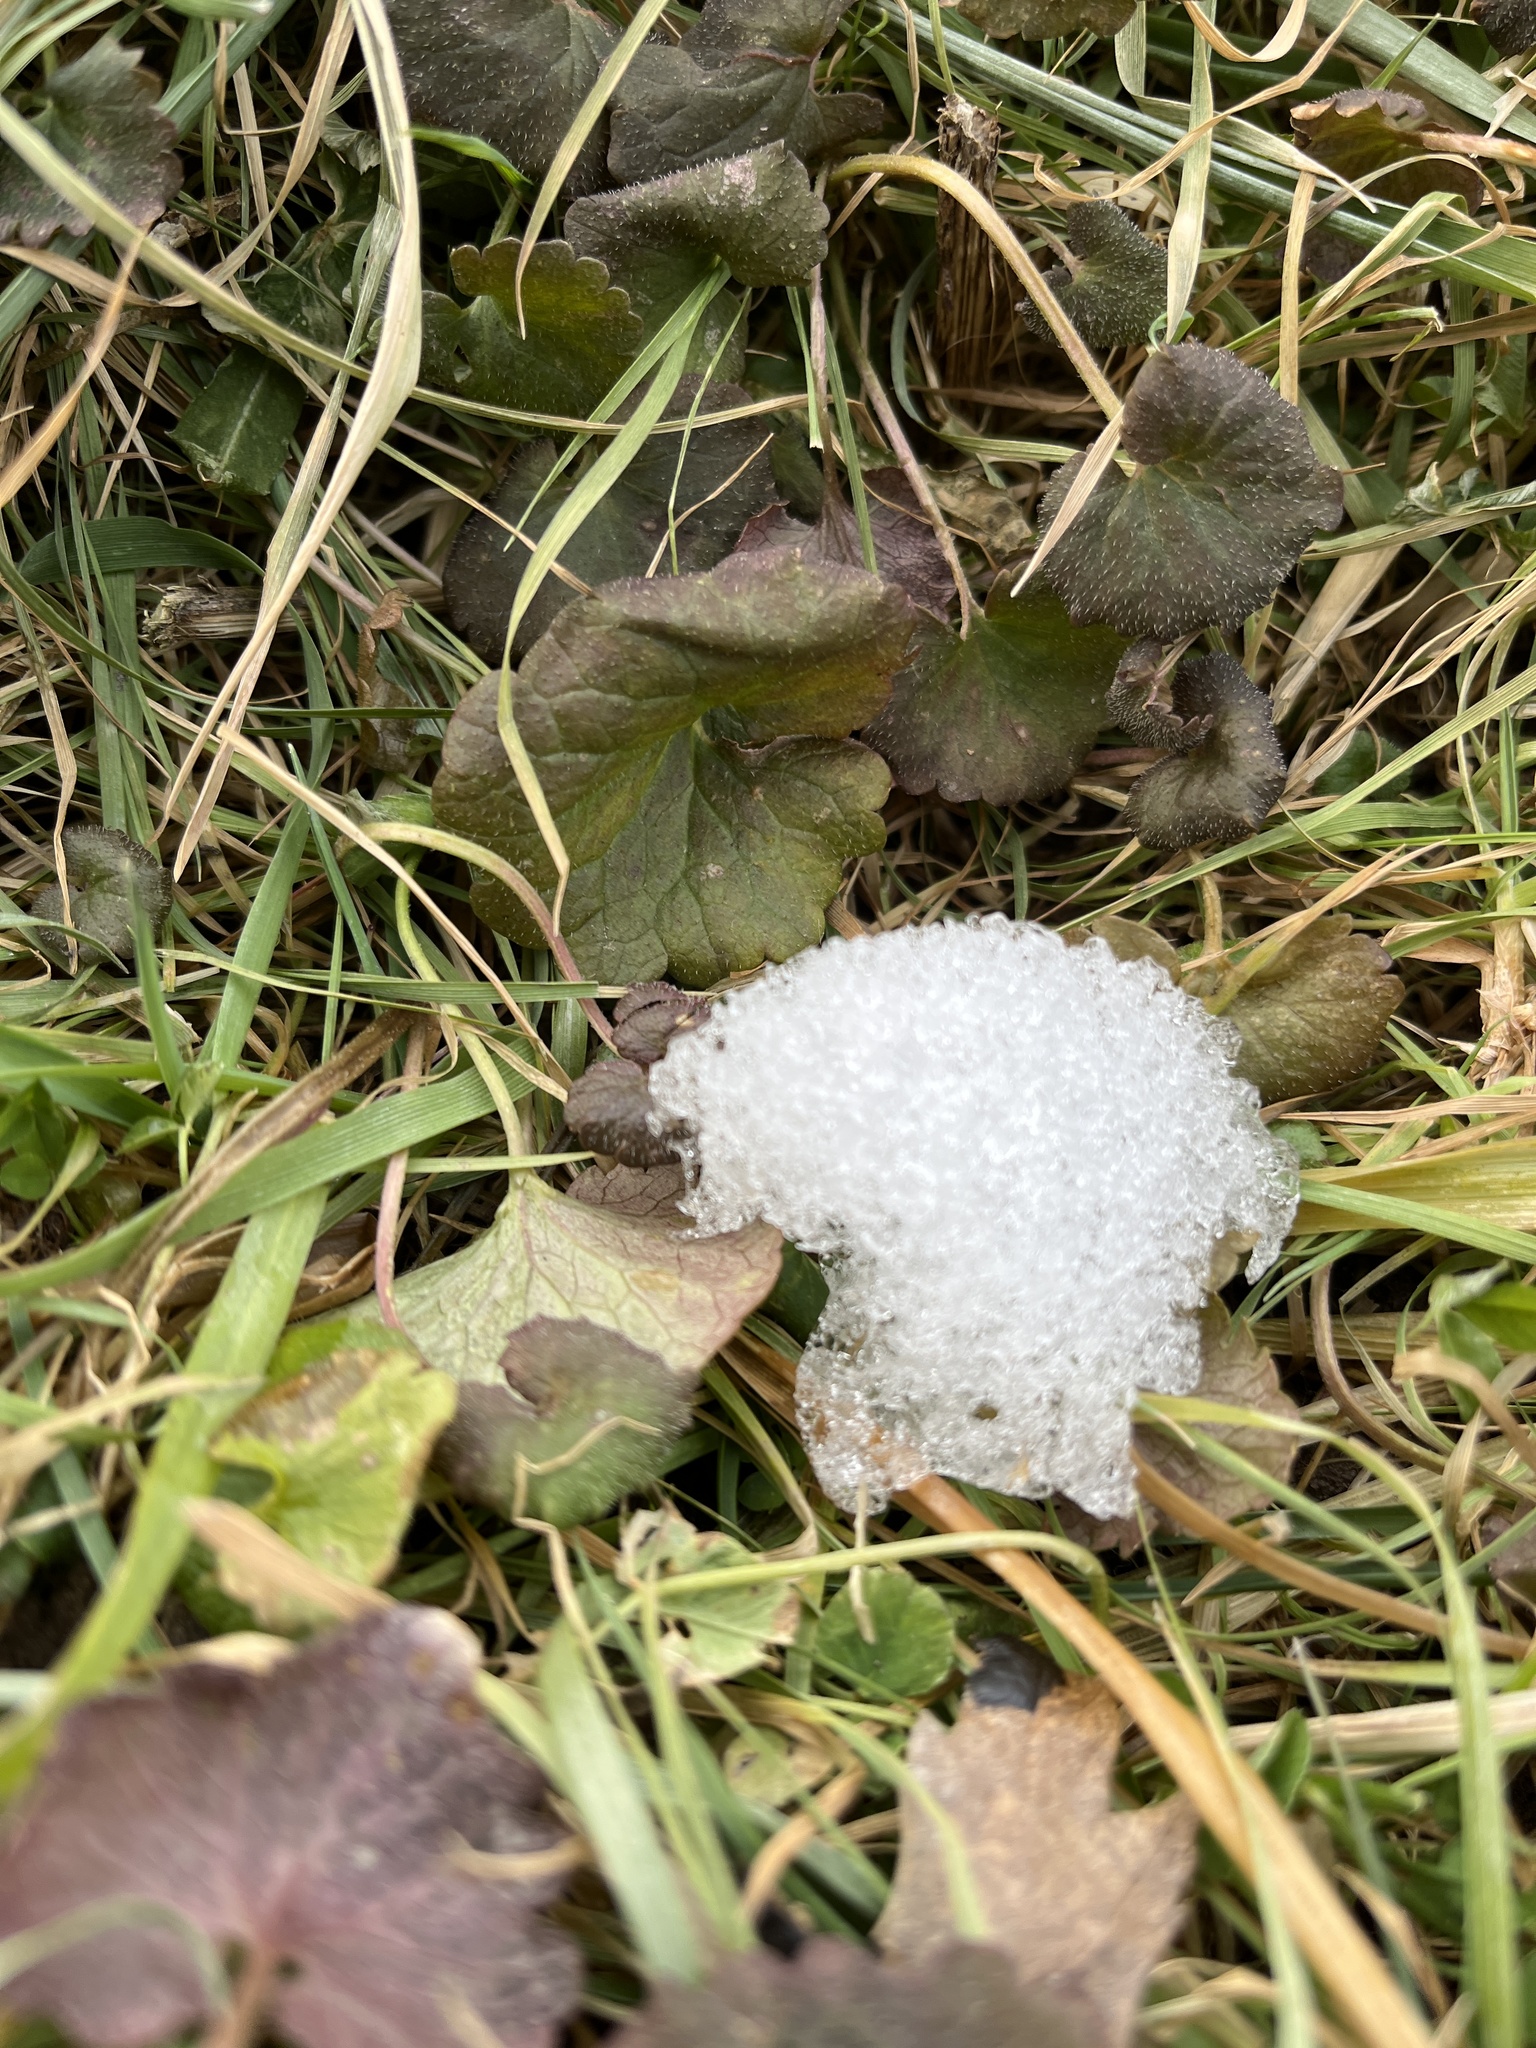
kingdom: Plantae
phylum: Tracheophyta
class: Magnoliopsida
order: Lamiales
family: Lamiaceae
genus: Glechoma
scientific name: Glechoma hederacea
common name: Ground ivy
